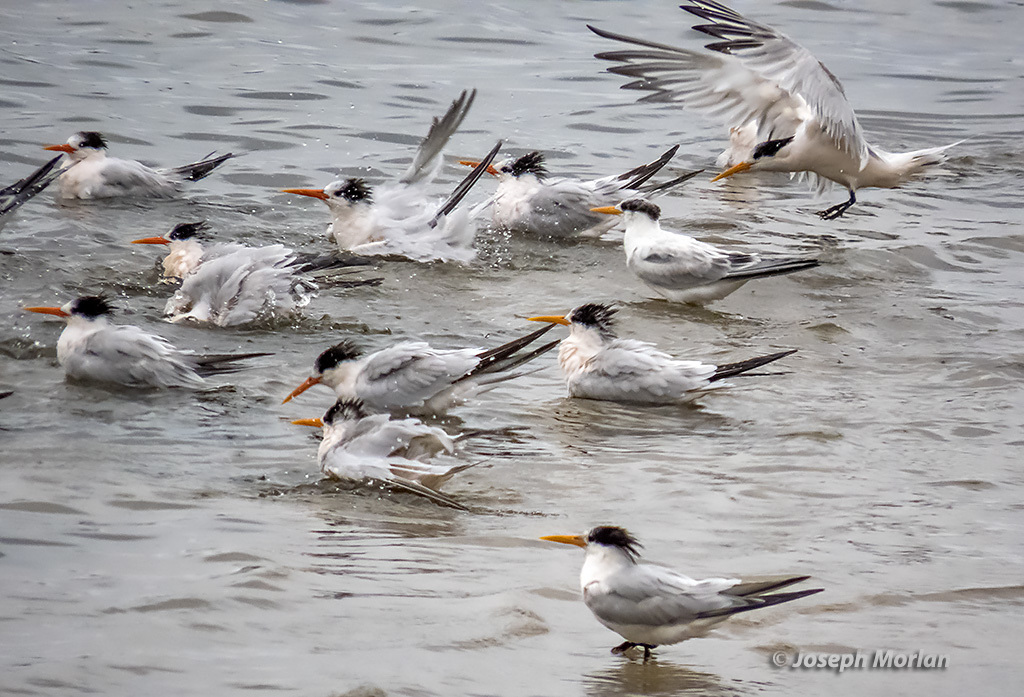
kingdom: Animalia
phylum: Chordata
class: Aves
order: Charadriiformes
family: Laridae
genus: Thalasseus
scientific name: Thalasseus elegans
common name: Elegant tern
